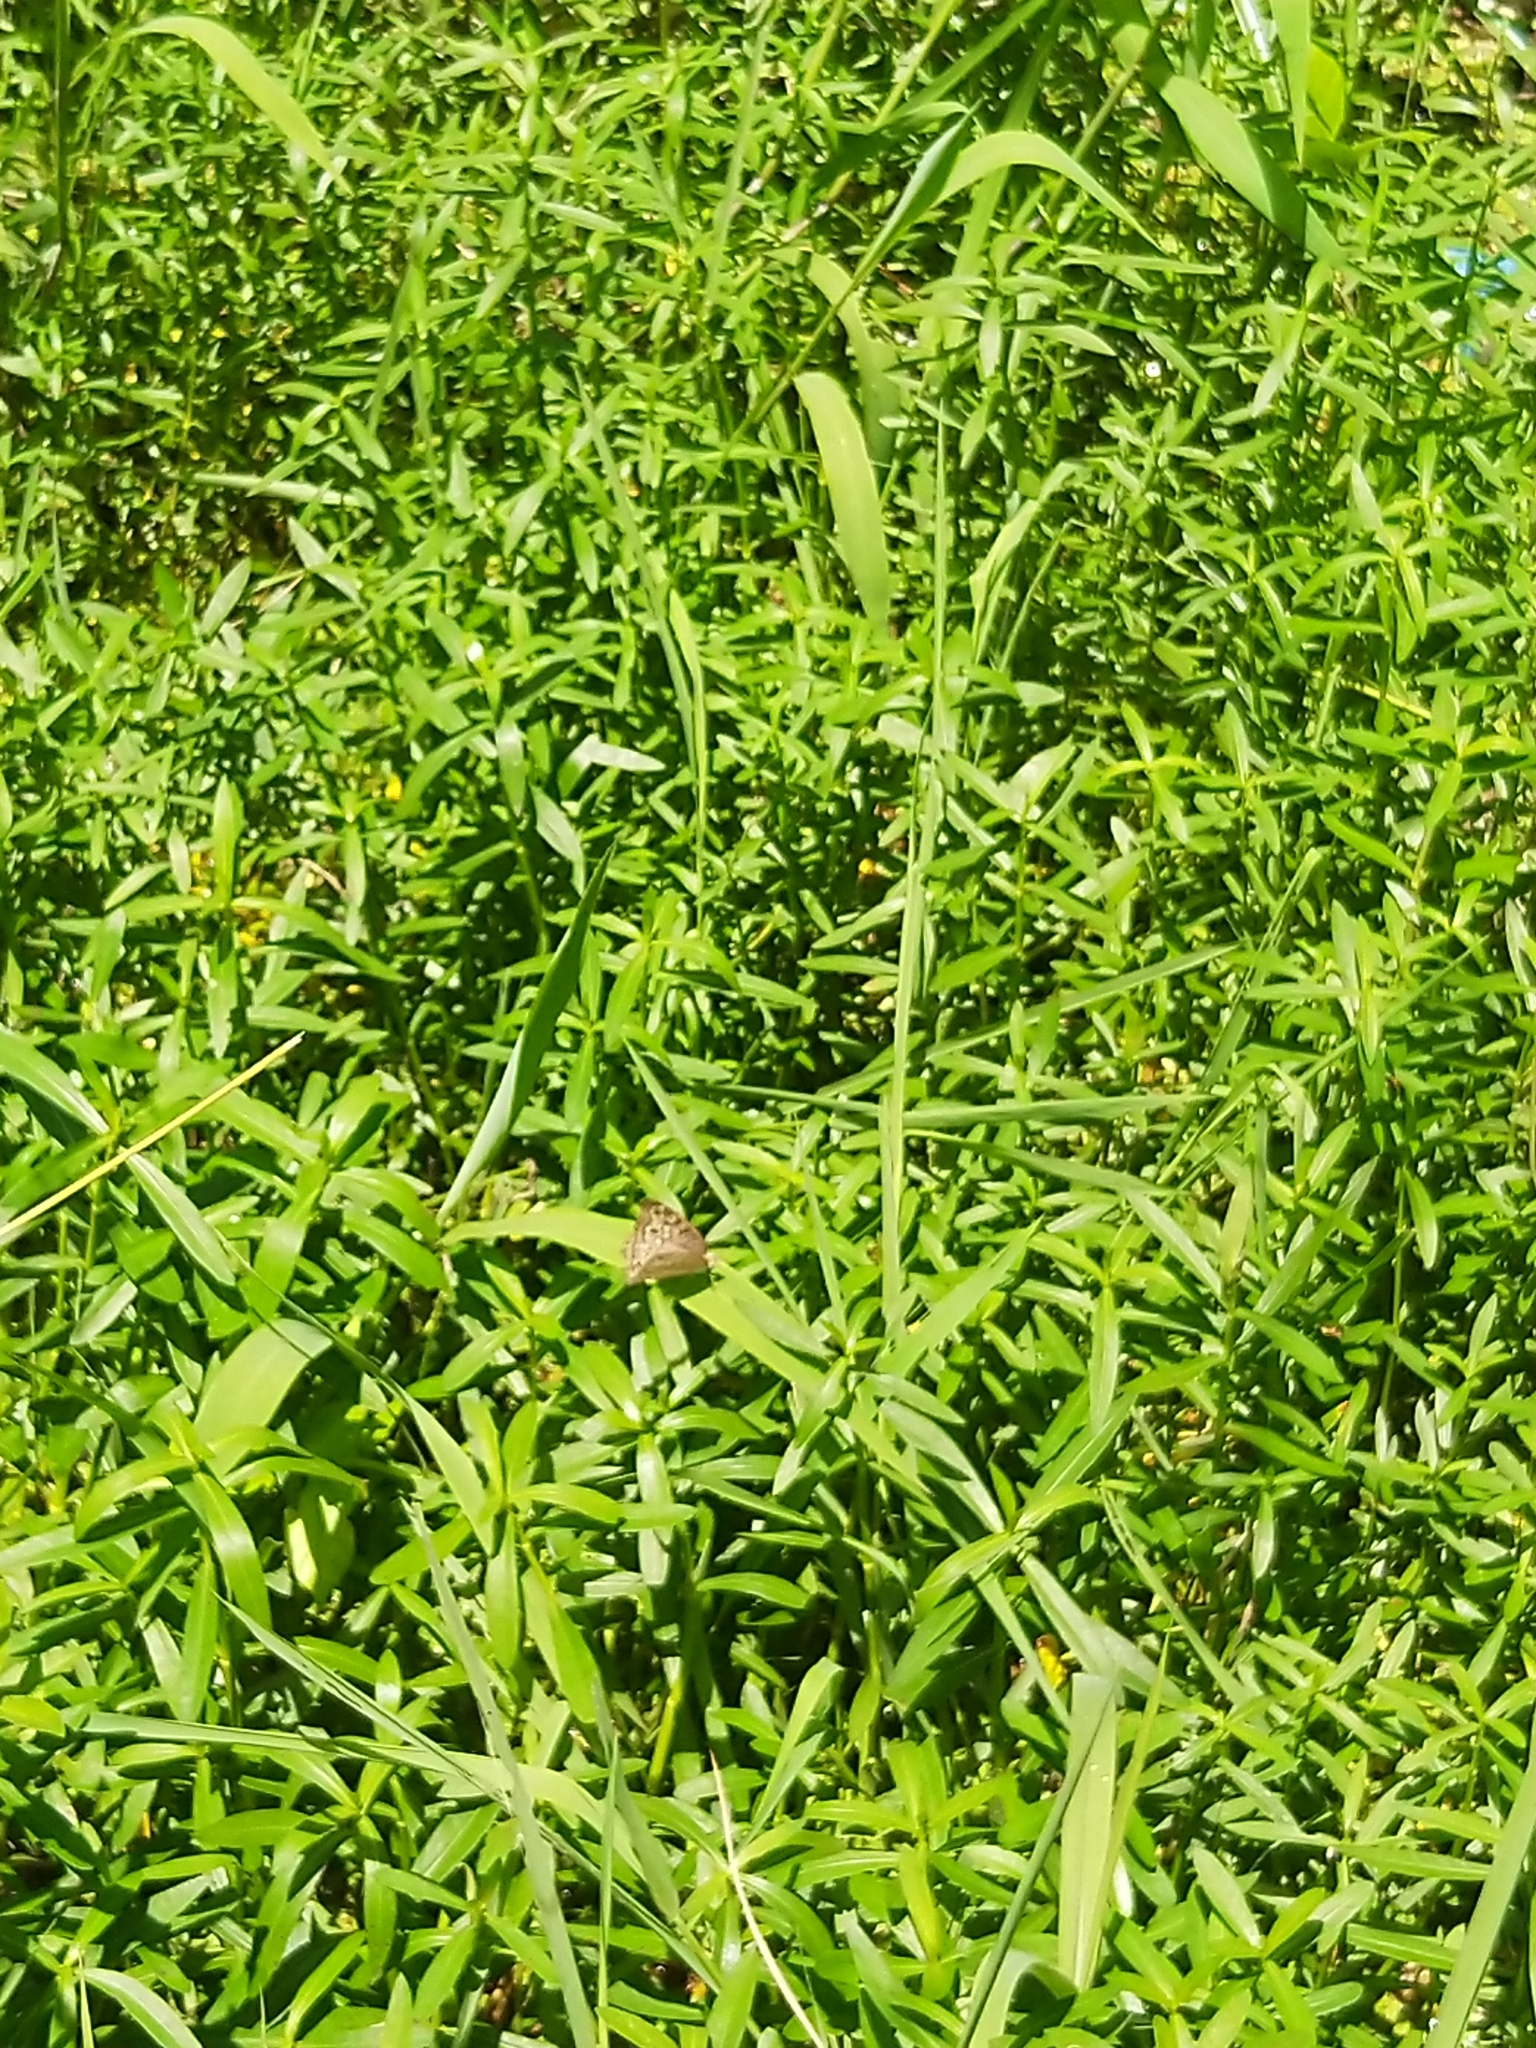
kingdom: Animalia
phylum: Arthropoda
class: Insecta
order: Lepidoptera
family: Nymphalidae
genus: Junonia
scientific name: Junonia atlites
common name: Grey pansy
